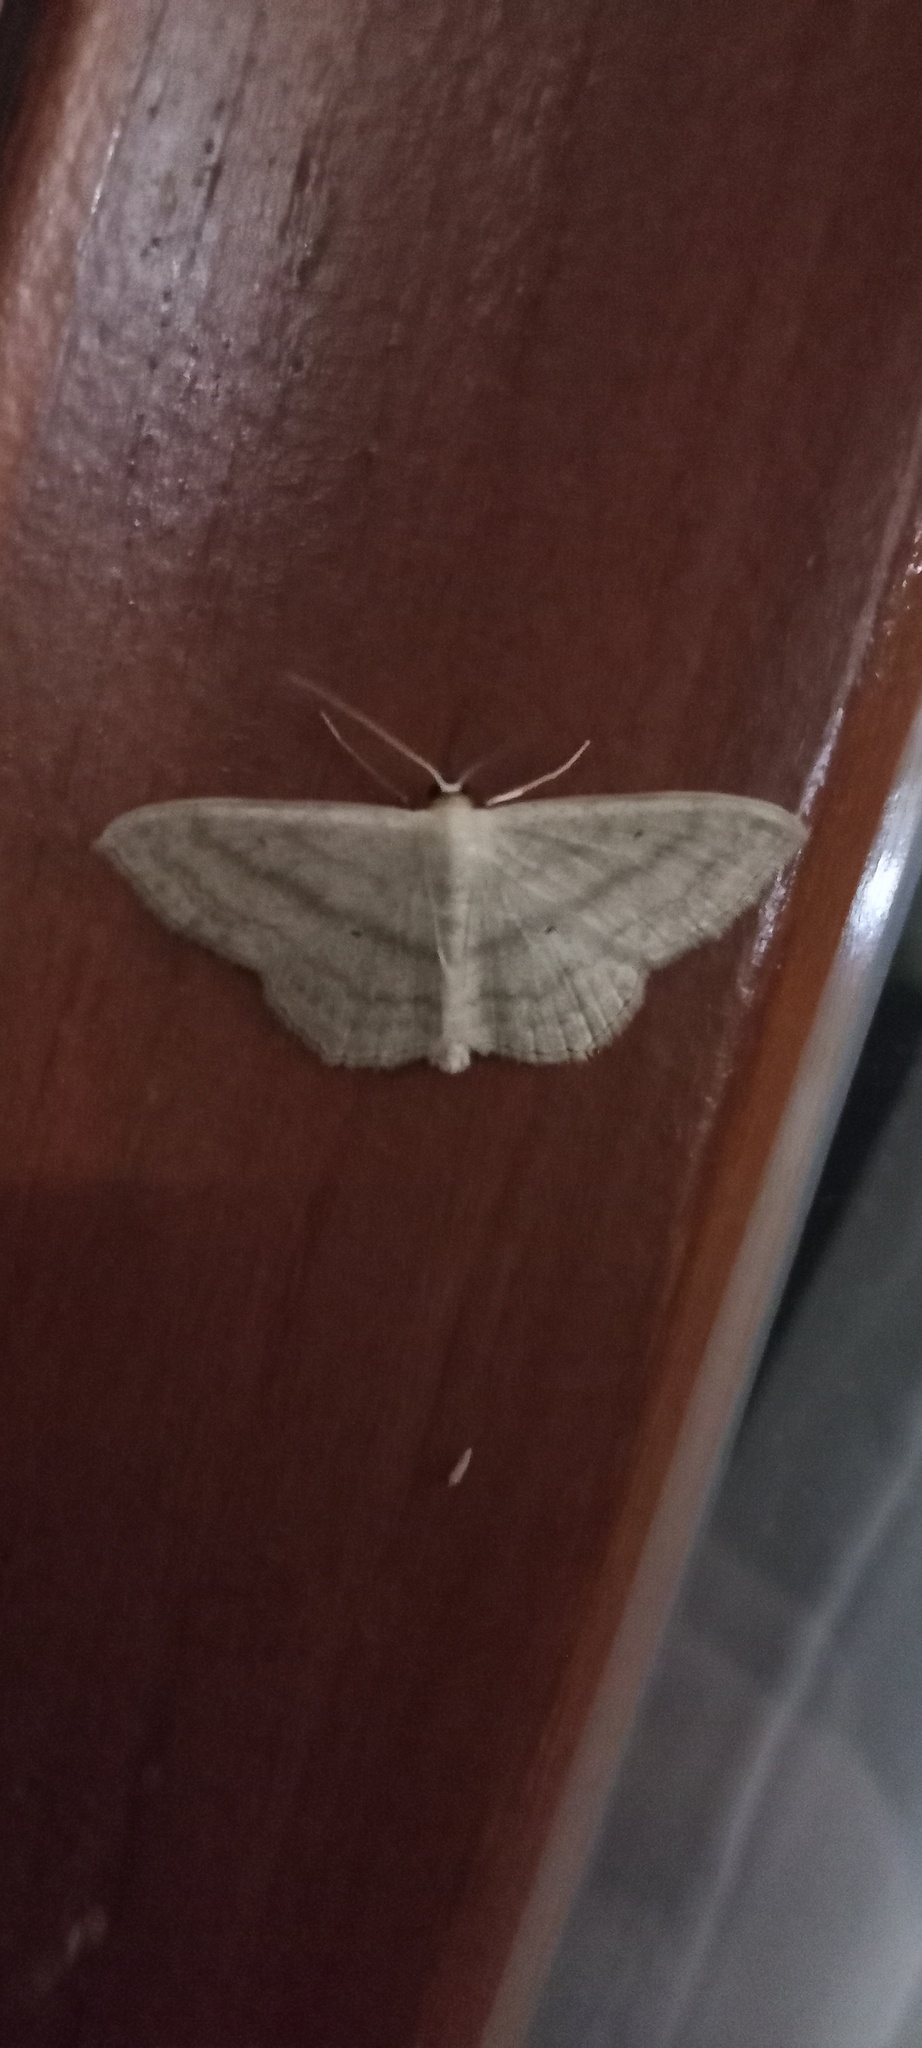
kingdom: Animalia
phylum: Arthropoda
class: Insecta
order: Lepidoptera
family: Geometridae
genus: Scopula
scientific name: Scopula nigropunctata
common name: Sub-angled wave
